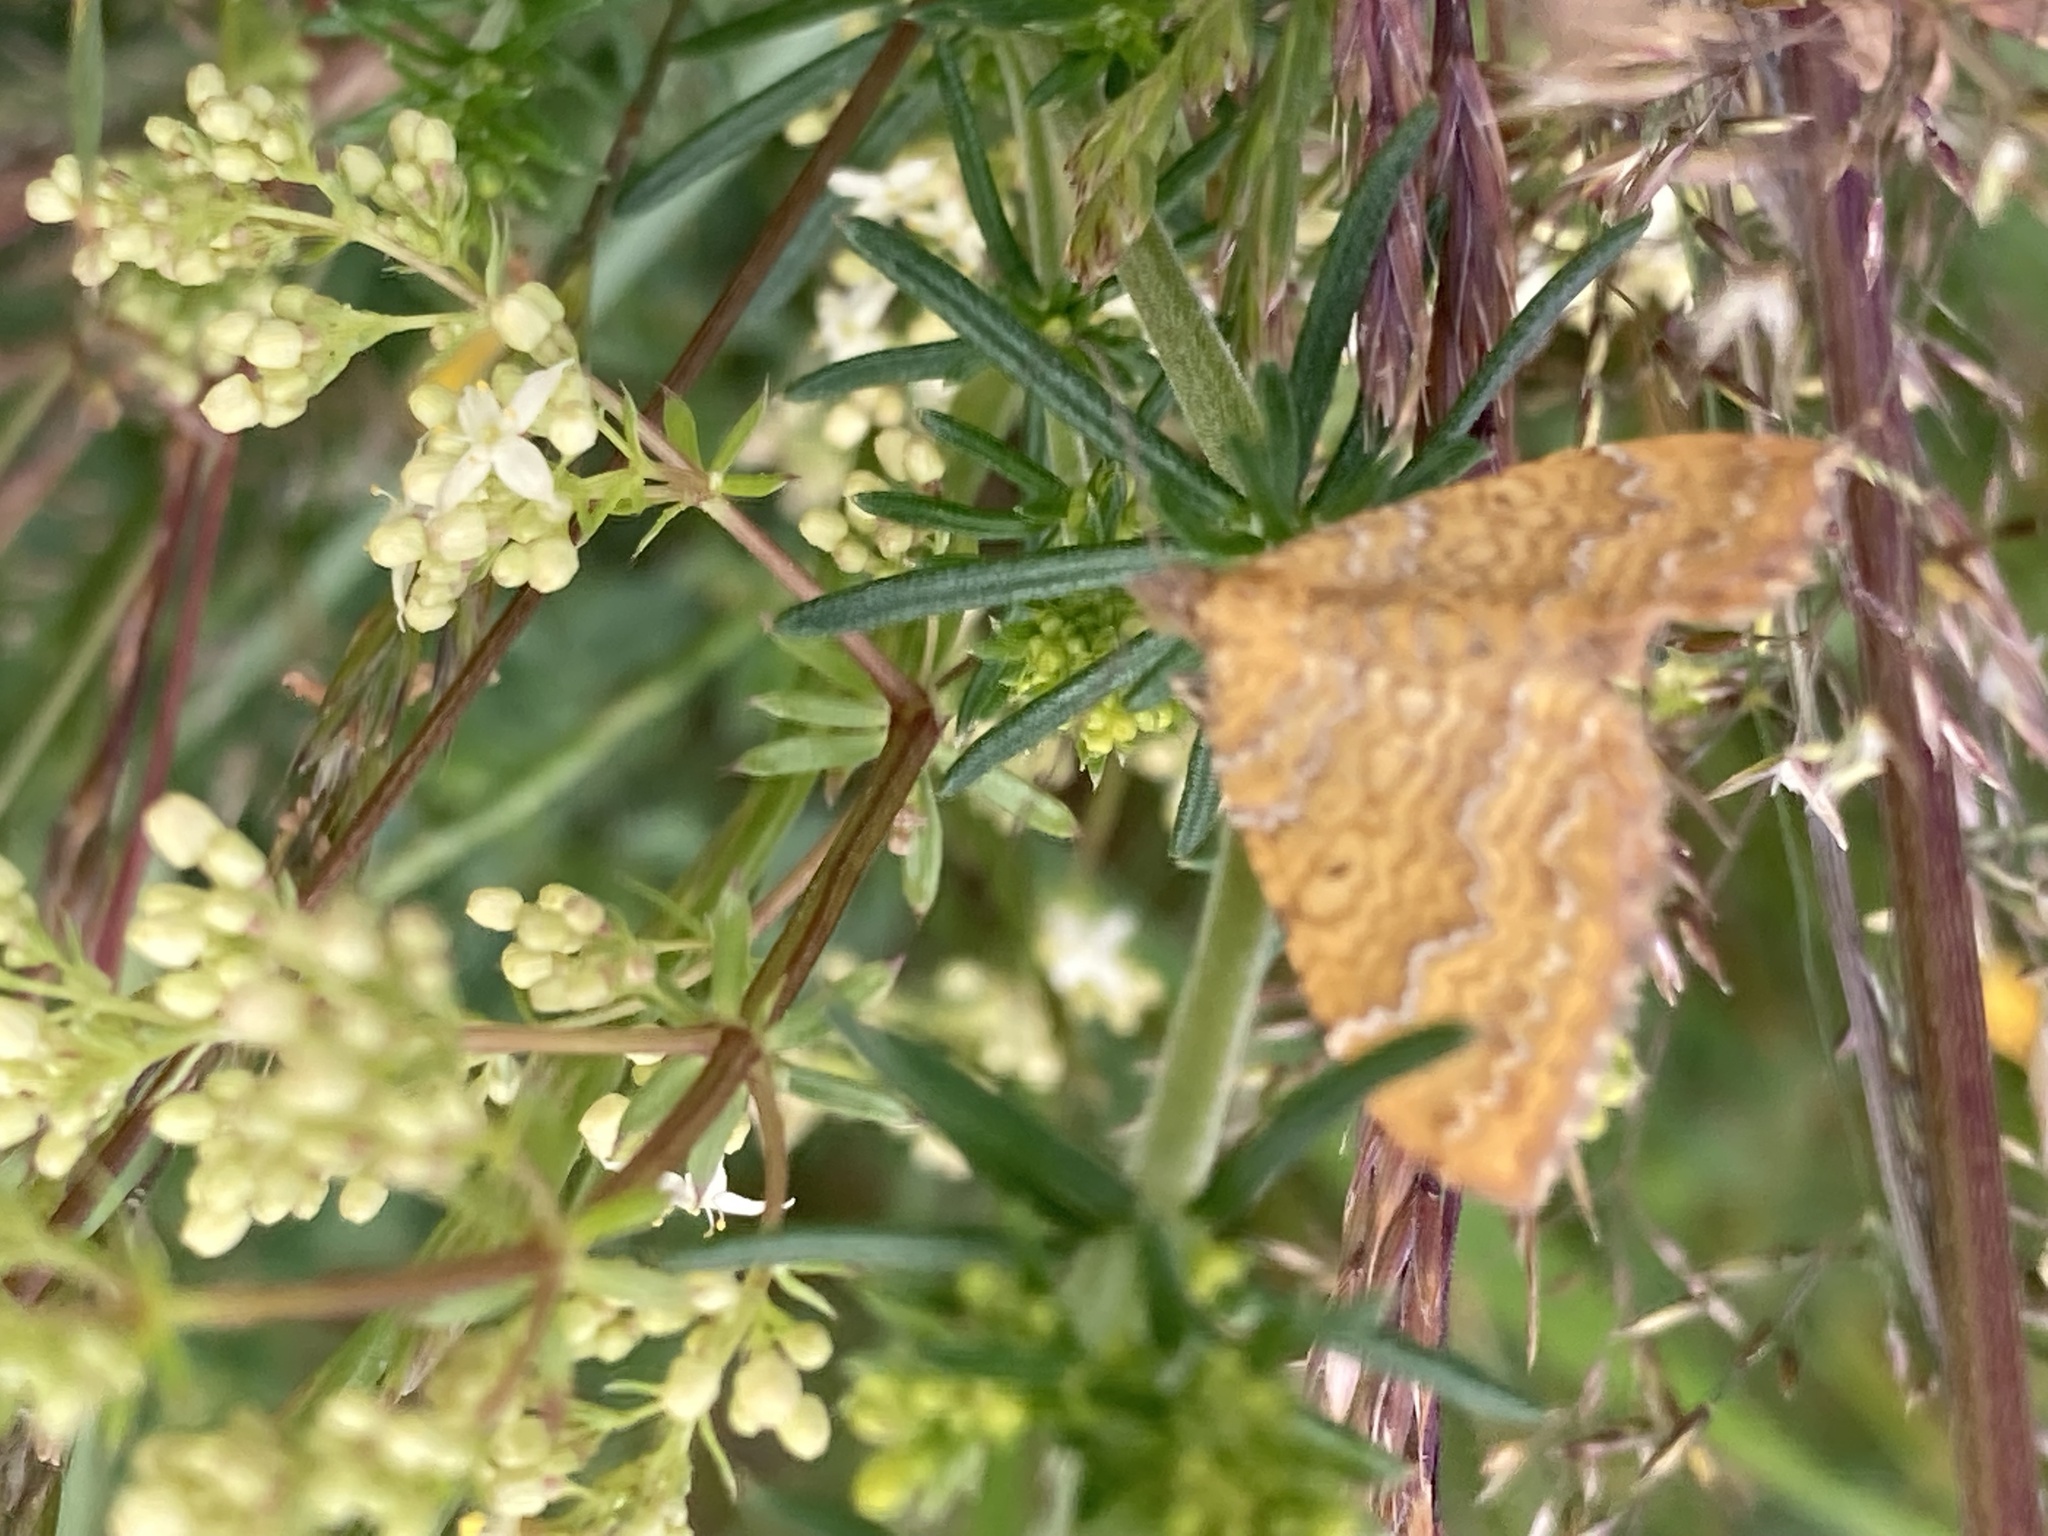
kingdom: Animalia
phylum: Arthropoda
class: Insecta
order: Lepidoptera
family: Geometridae
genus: Camptogramma
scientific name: Camptogramma bilineata
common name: Yellow shell
